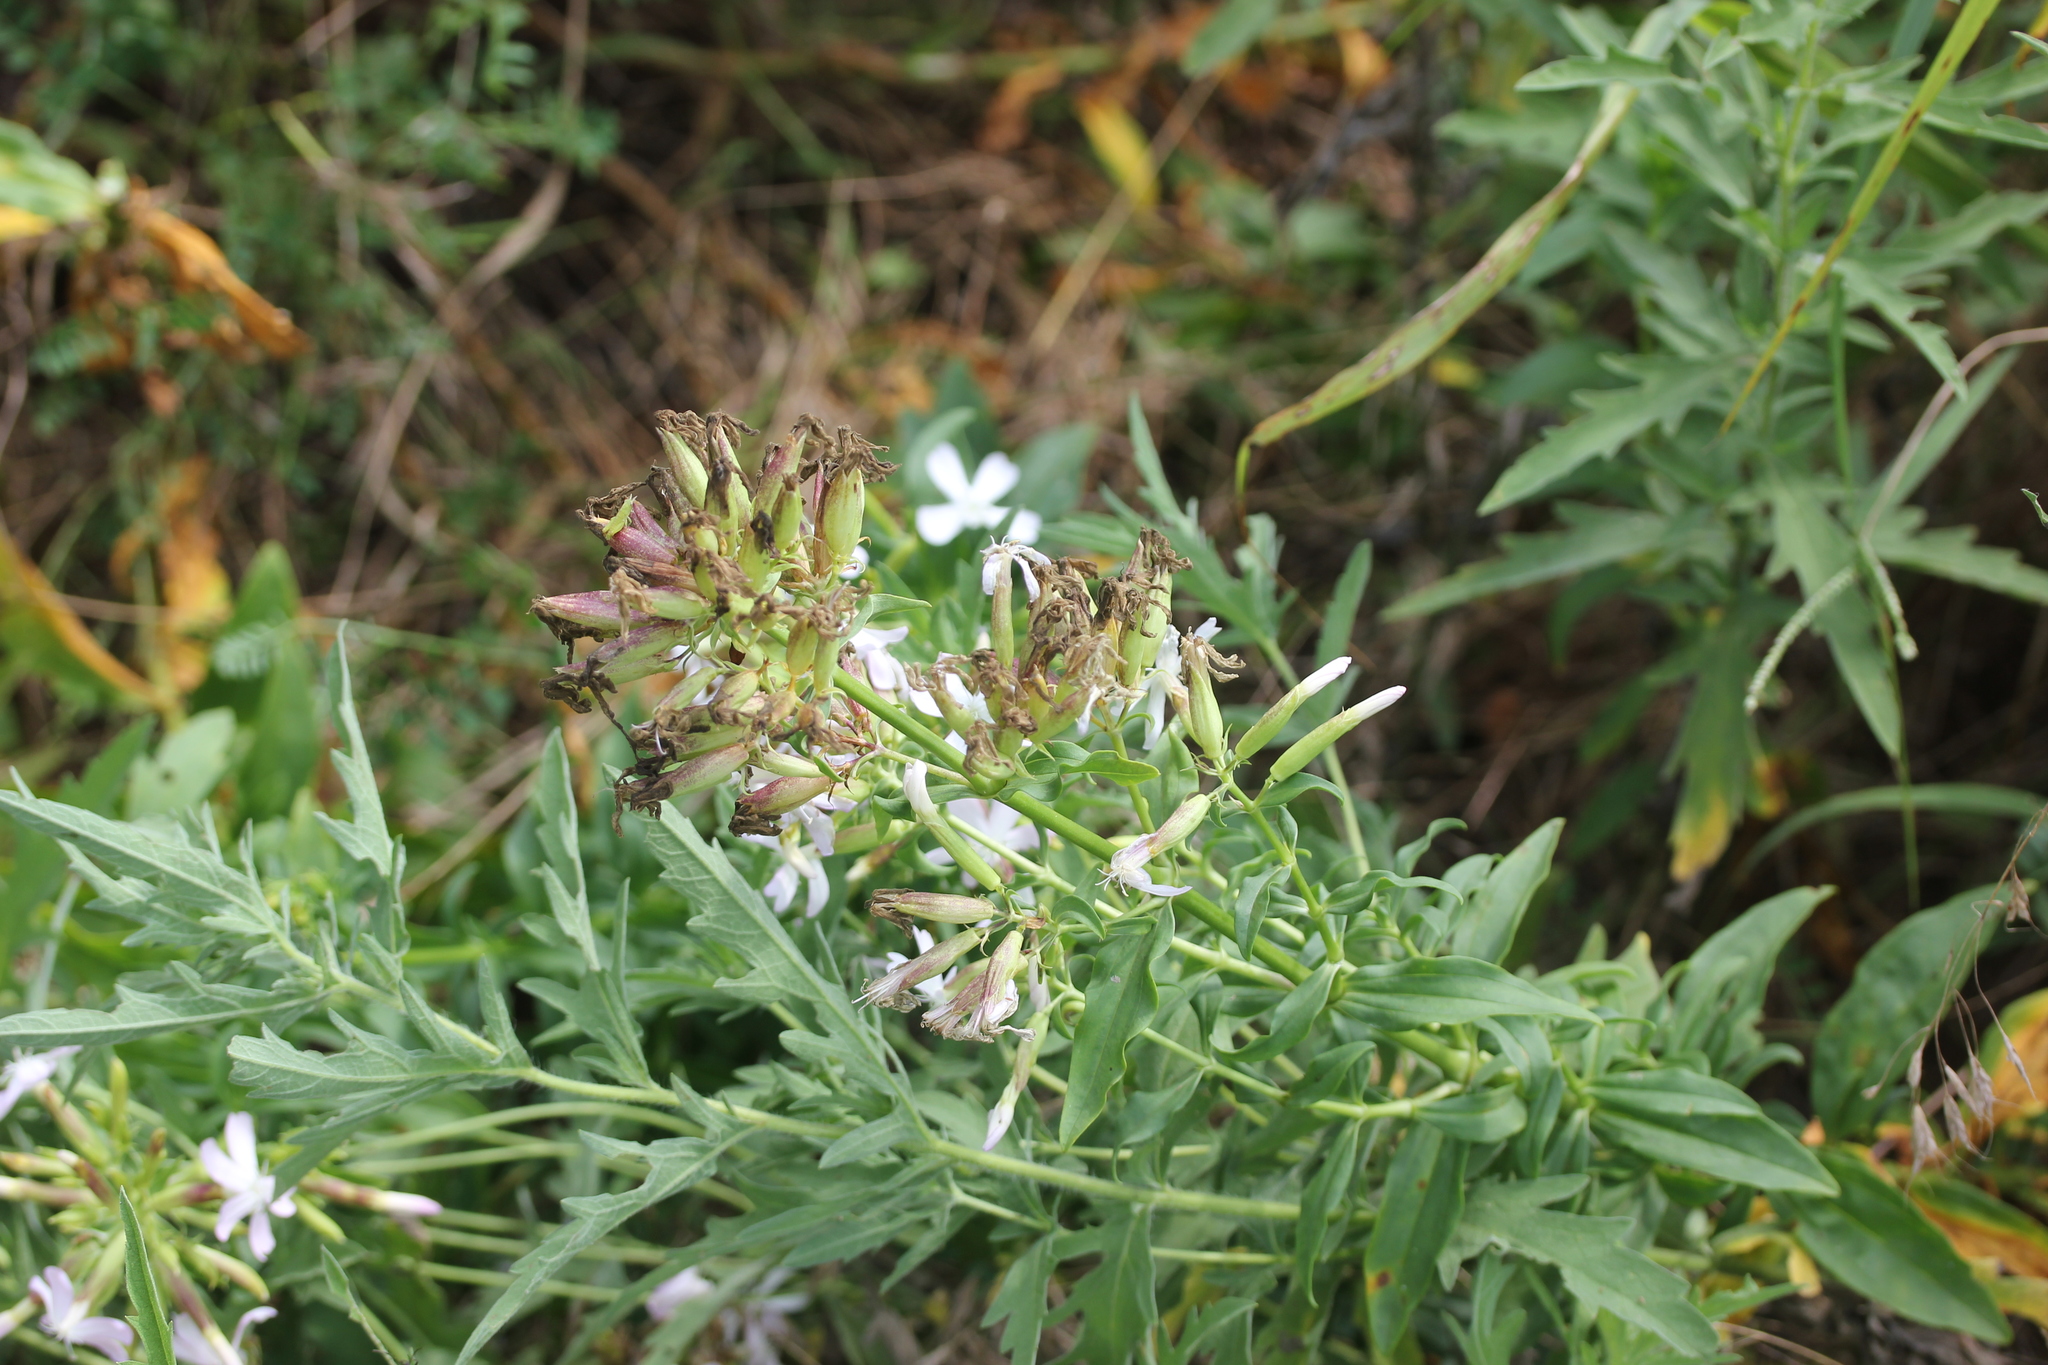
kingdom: Plantae
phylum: Tracheophyta
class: Magnoliopsida
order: Caryophyllales
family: Caryophyllaceae
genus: Saponaria
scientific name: Saponaria officinalis
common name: Soapwort
